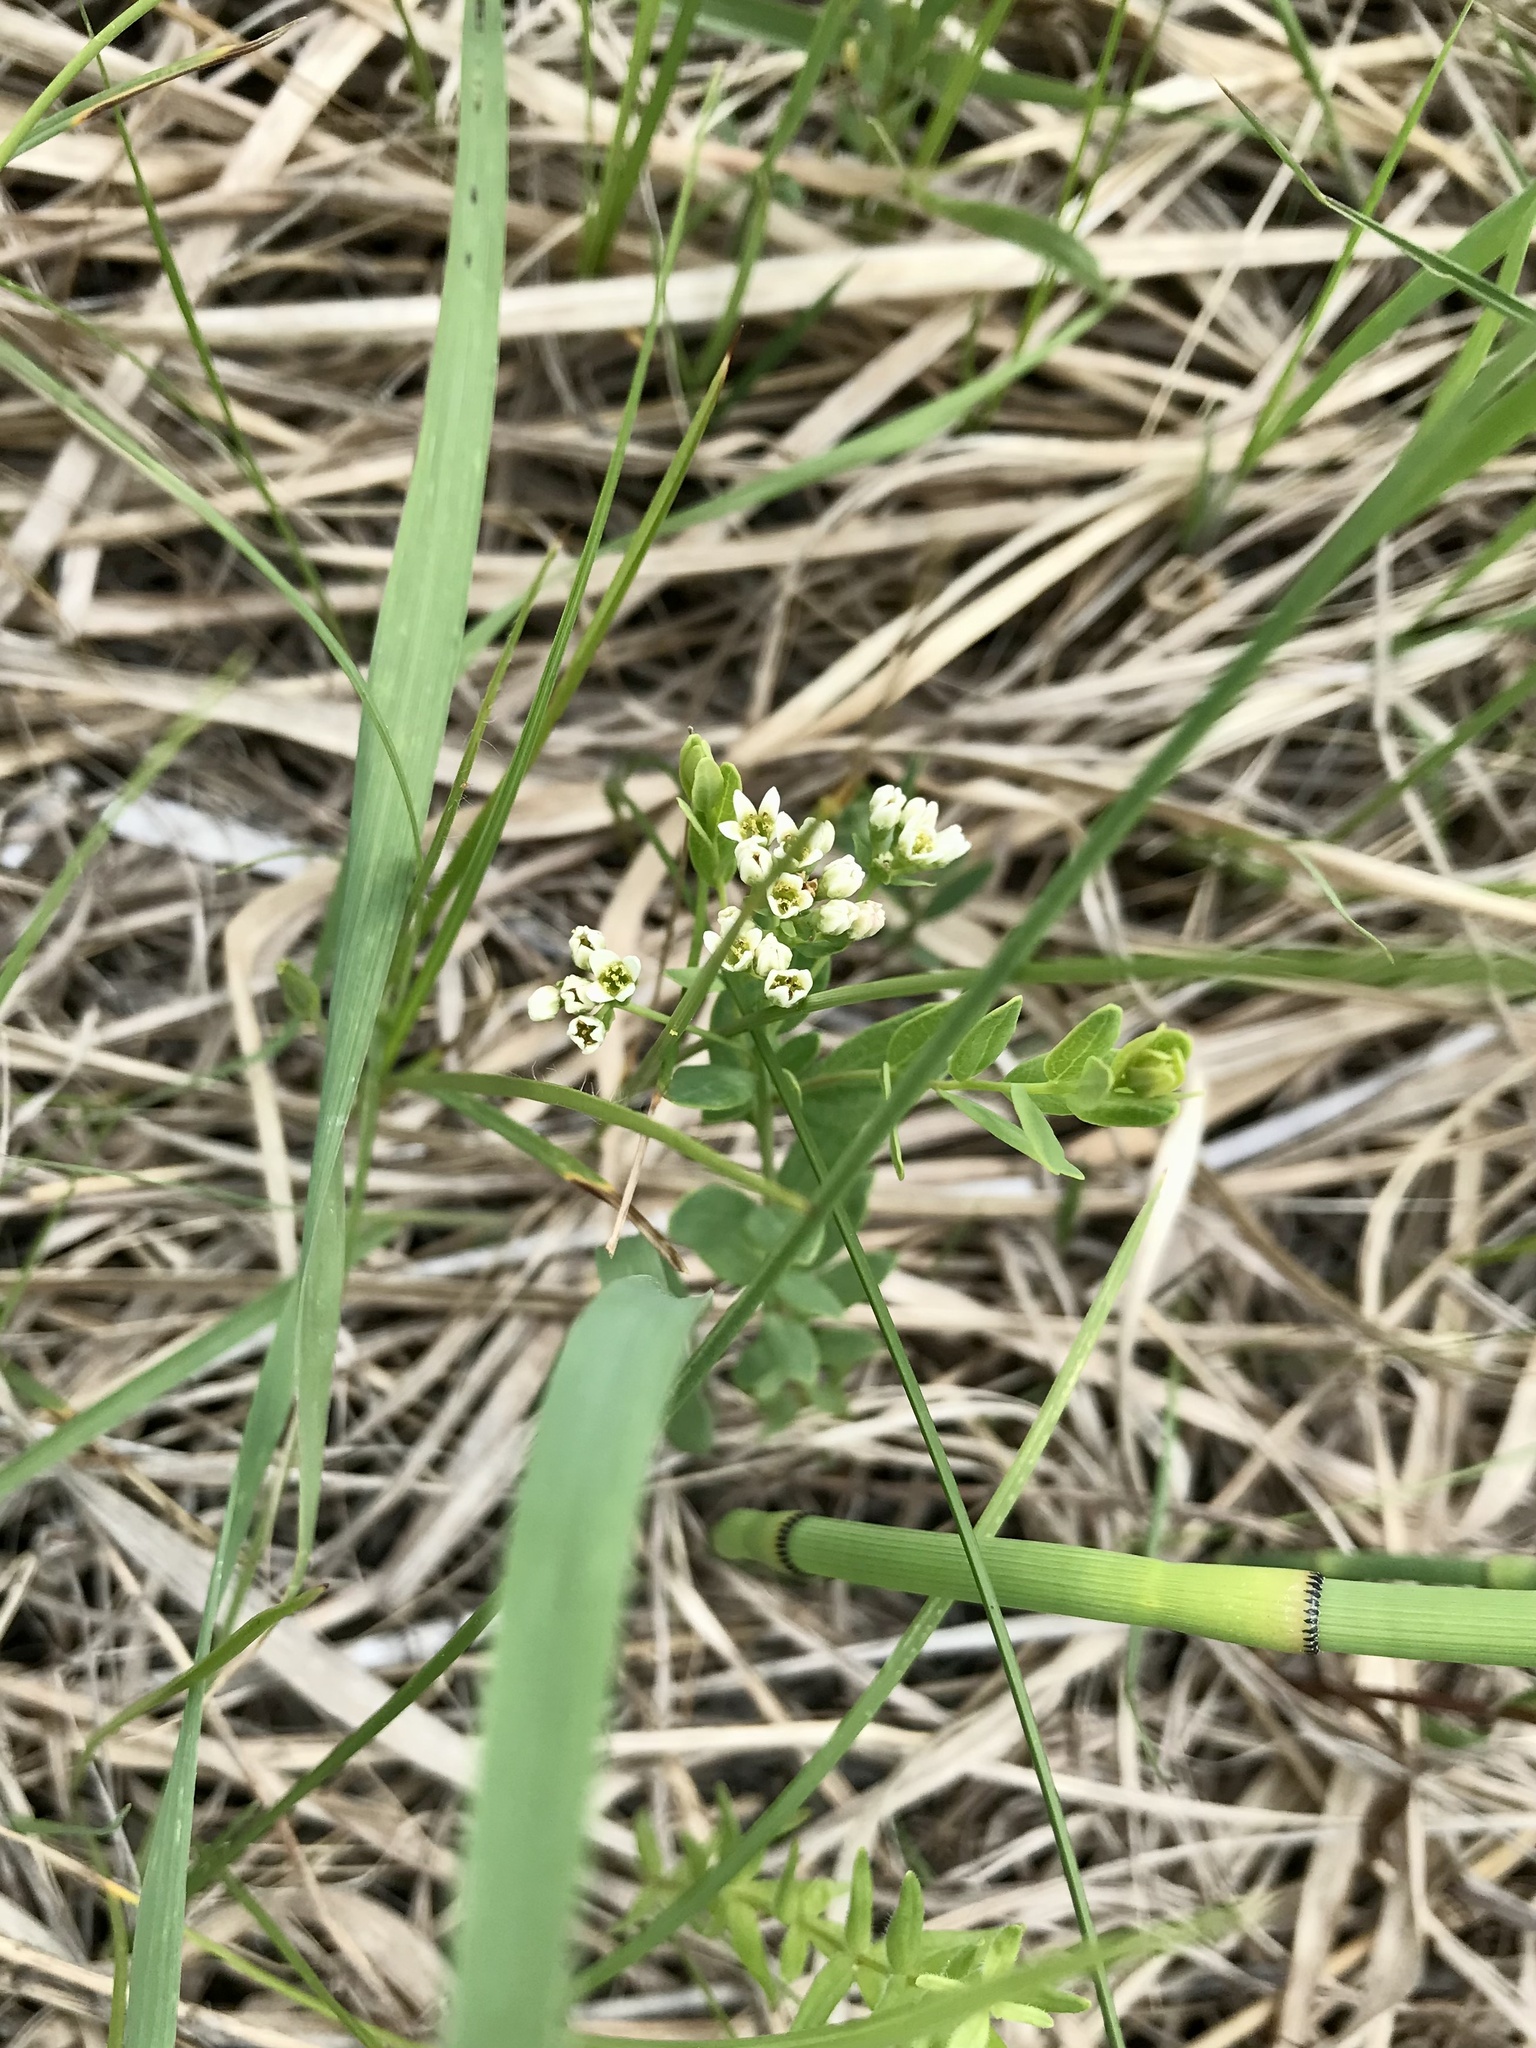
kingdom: Plantae
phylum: Tracheophyta
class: Magnoliopsida
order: Santalales
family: Comandraceae
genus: Comandra
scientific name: Comandra umbellata
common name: Bastard toadflax
